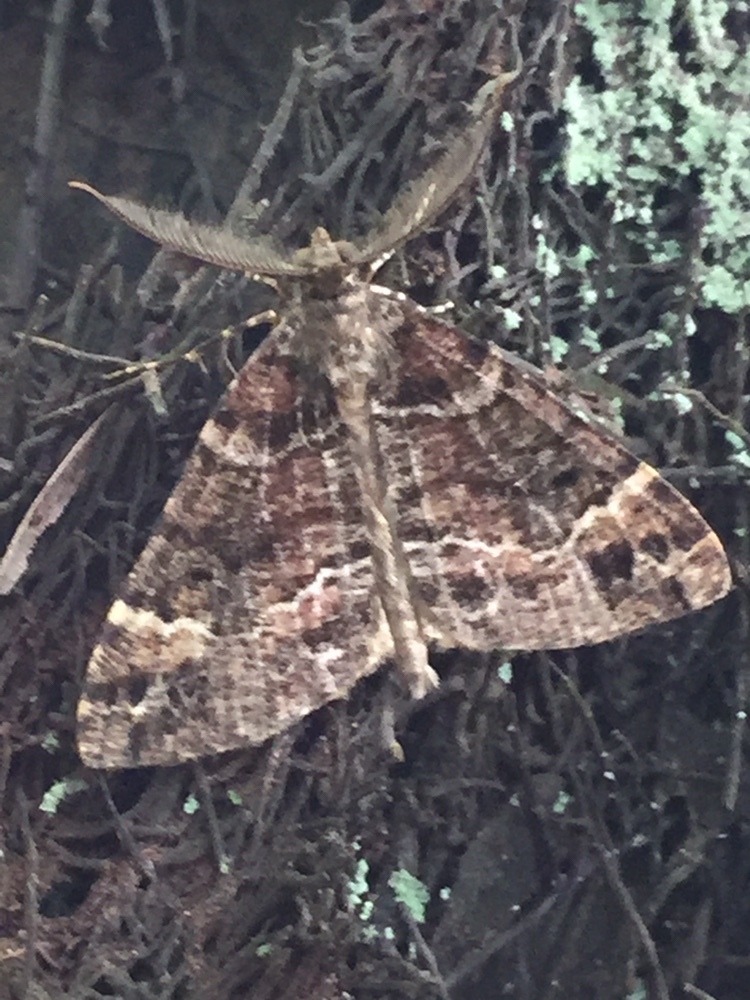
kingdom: Animalia
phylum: Arthropoda
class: Insecta
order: Lepidoptera
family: Geometridae
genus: Pseudocoremia
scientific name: Pseudocoremia productata
